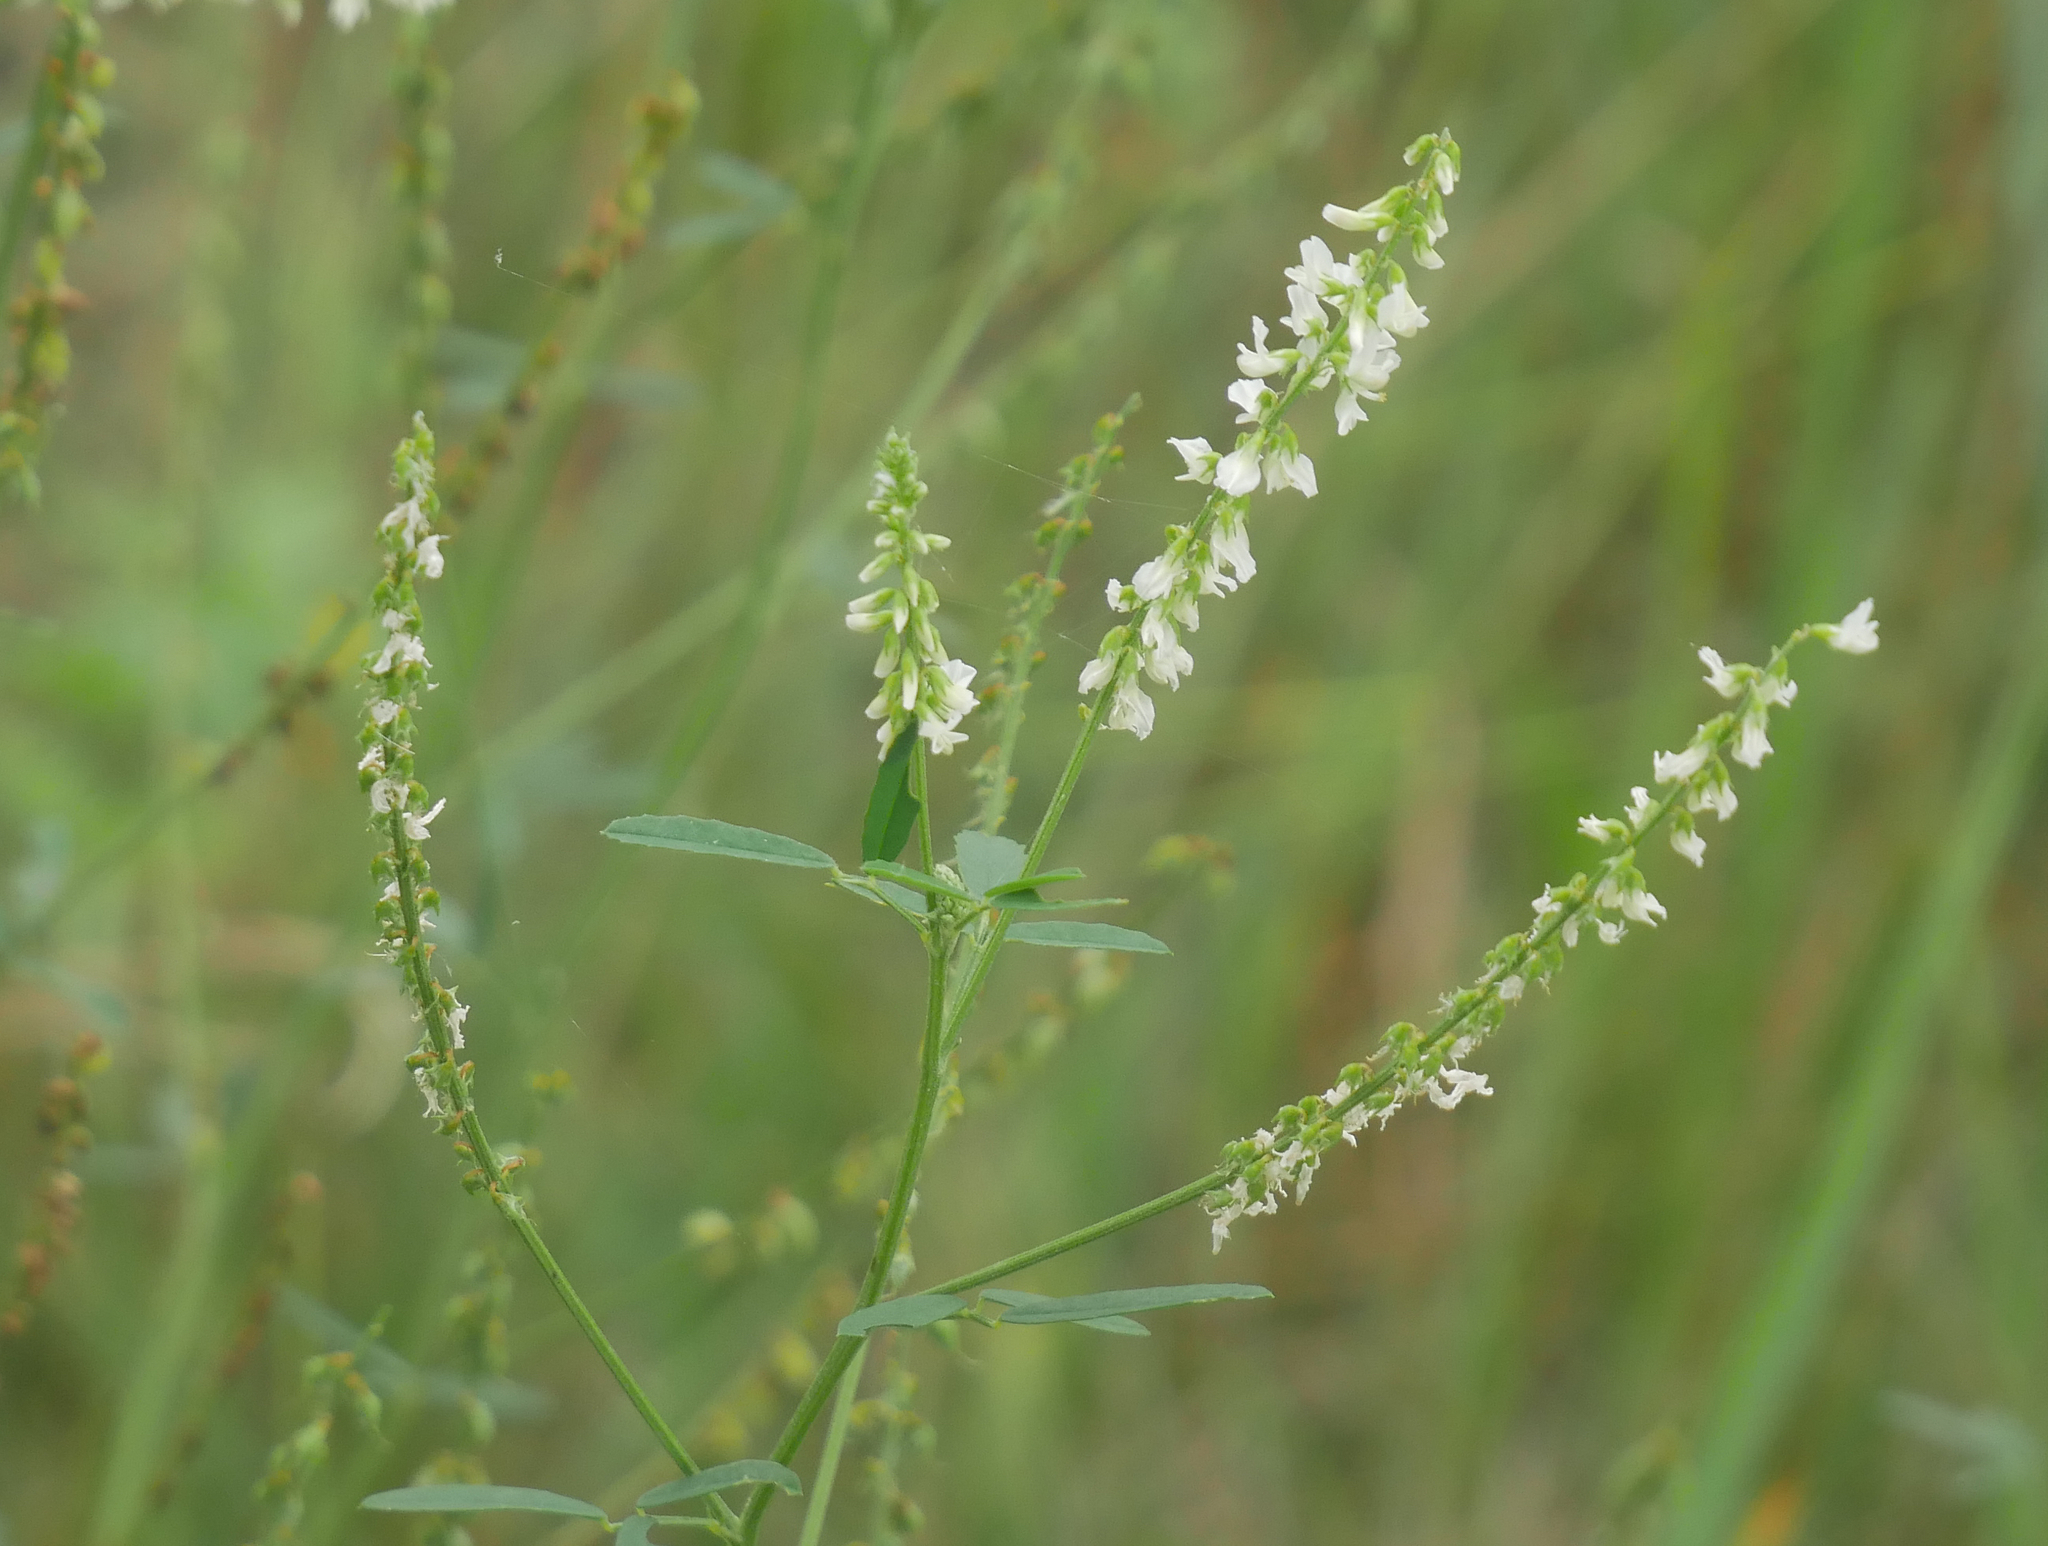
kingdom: Plantae
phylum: Tracheophyta
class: Magnoliopsida
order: Fabales
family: Fabaceae
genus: Melilotus
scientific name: Melilotus albus
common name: White melilot
